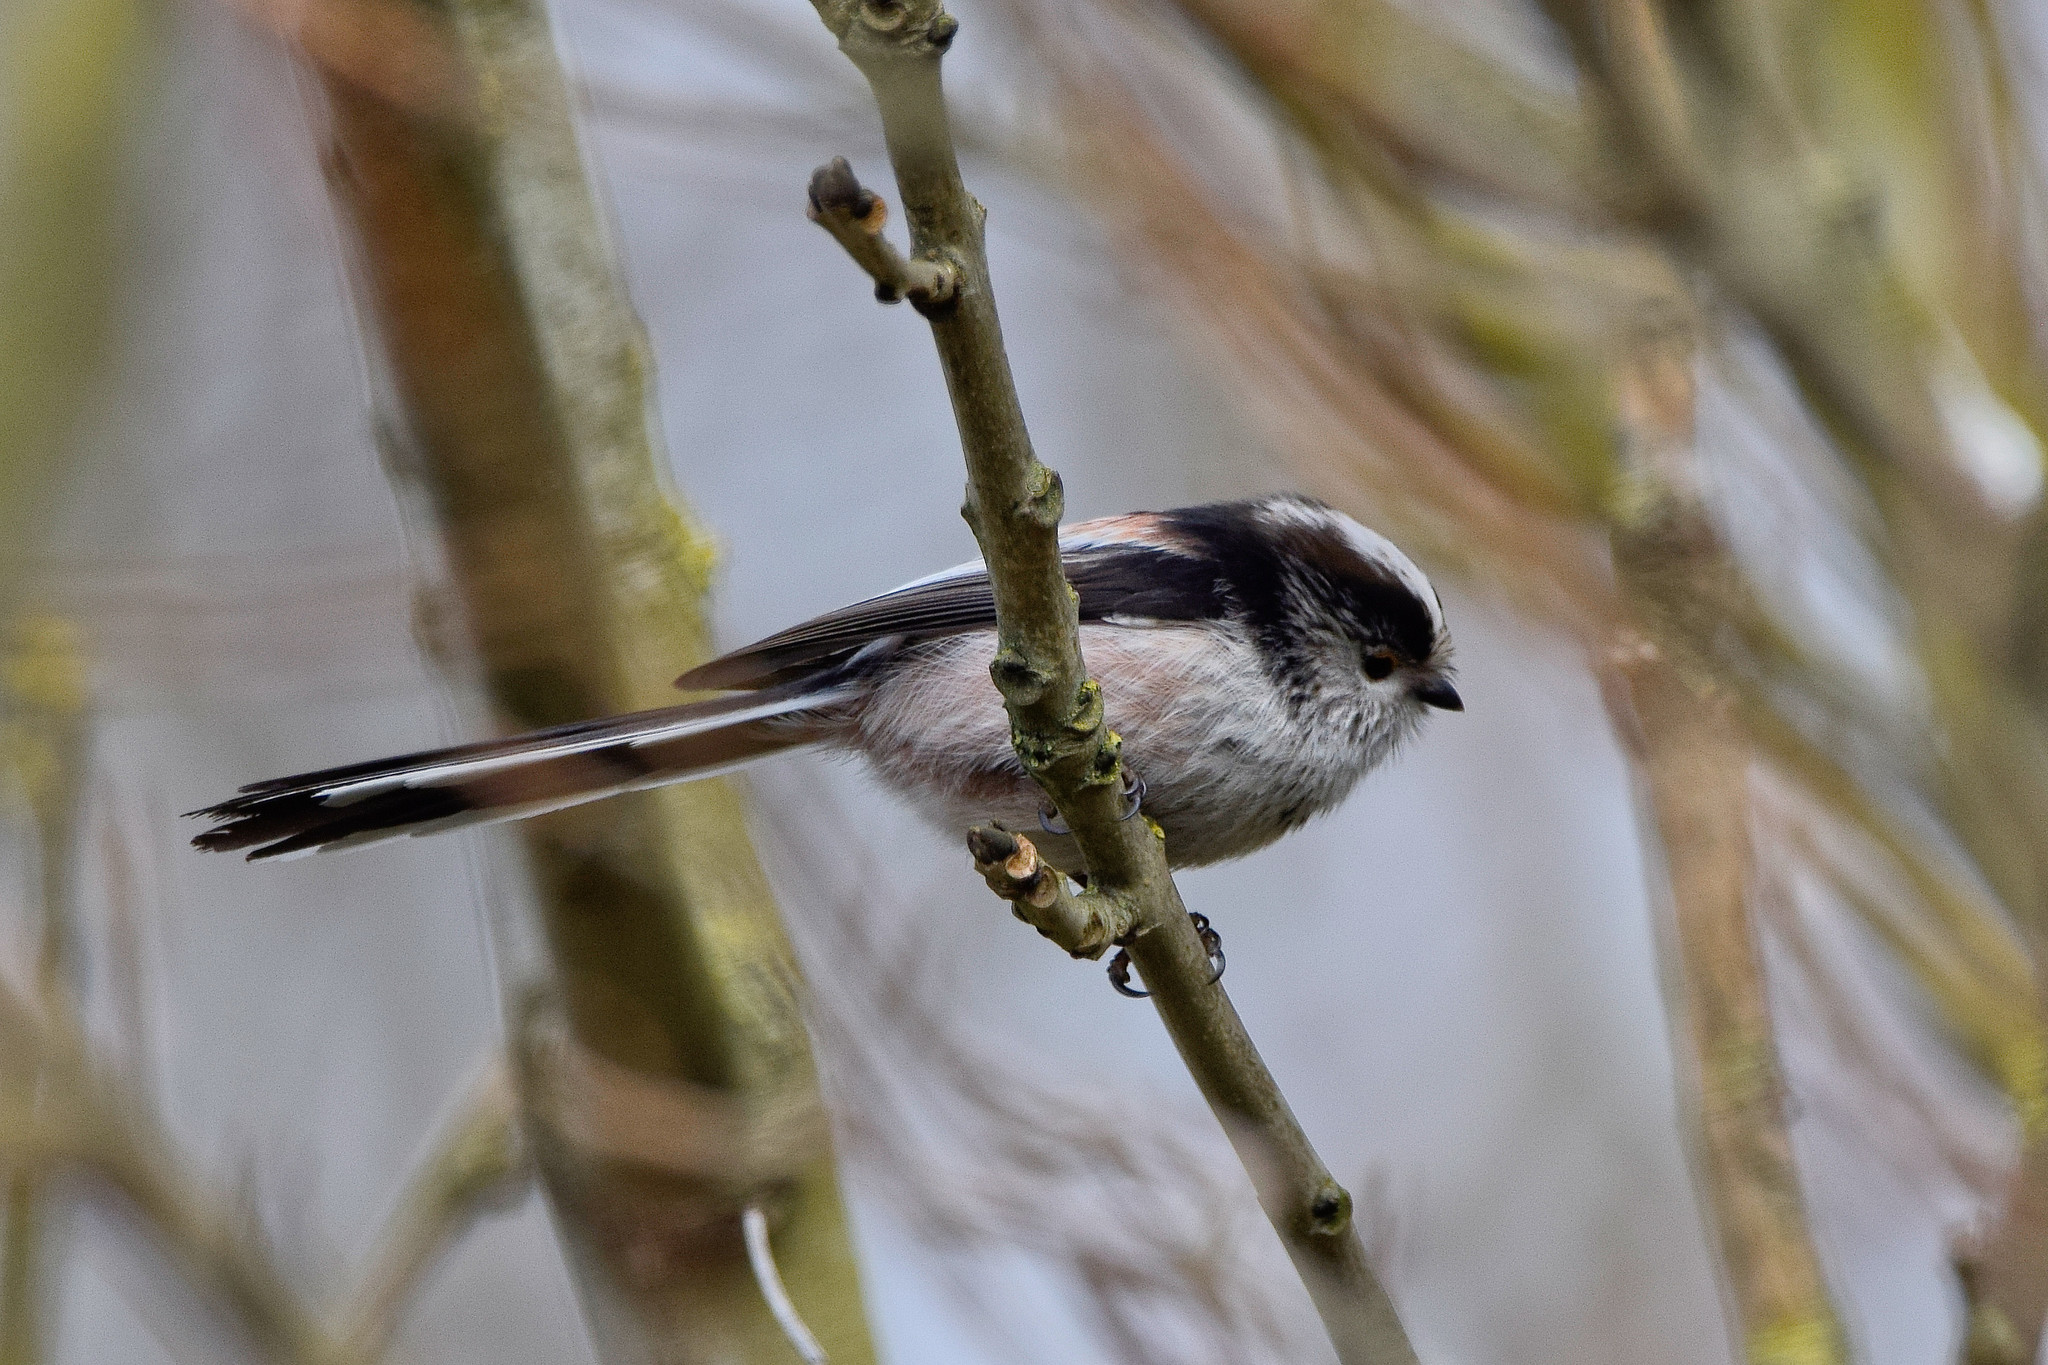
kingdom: Animalia
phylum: Chordata
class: Aves
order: Passeriformes
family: Aegithalidae
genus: Aegithalos
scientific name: Aegithalos caudatus
